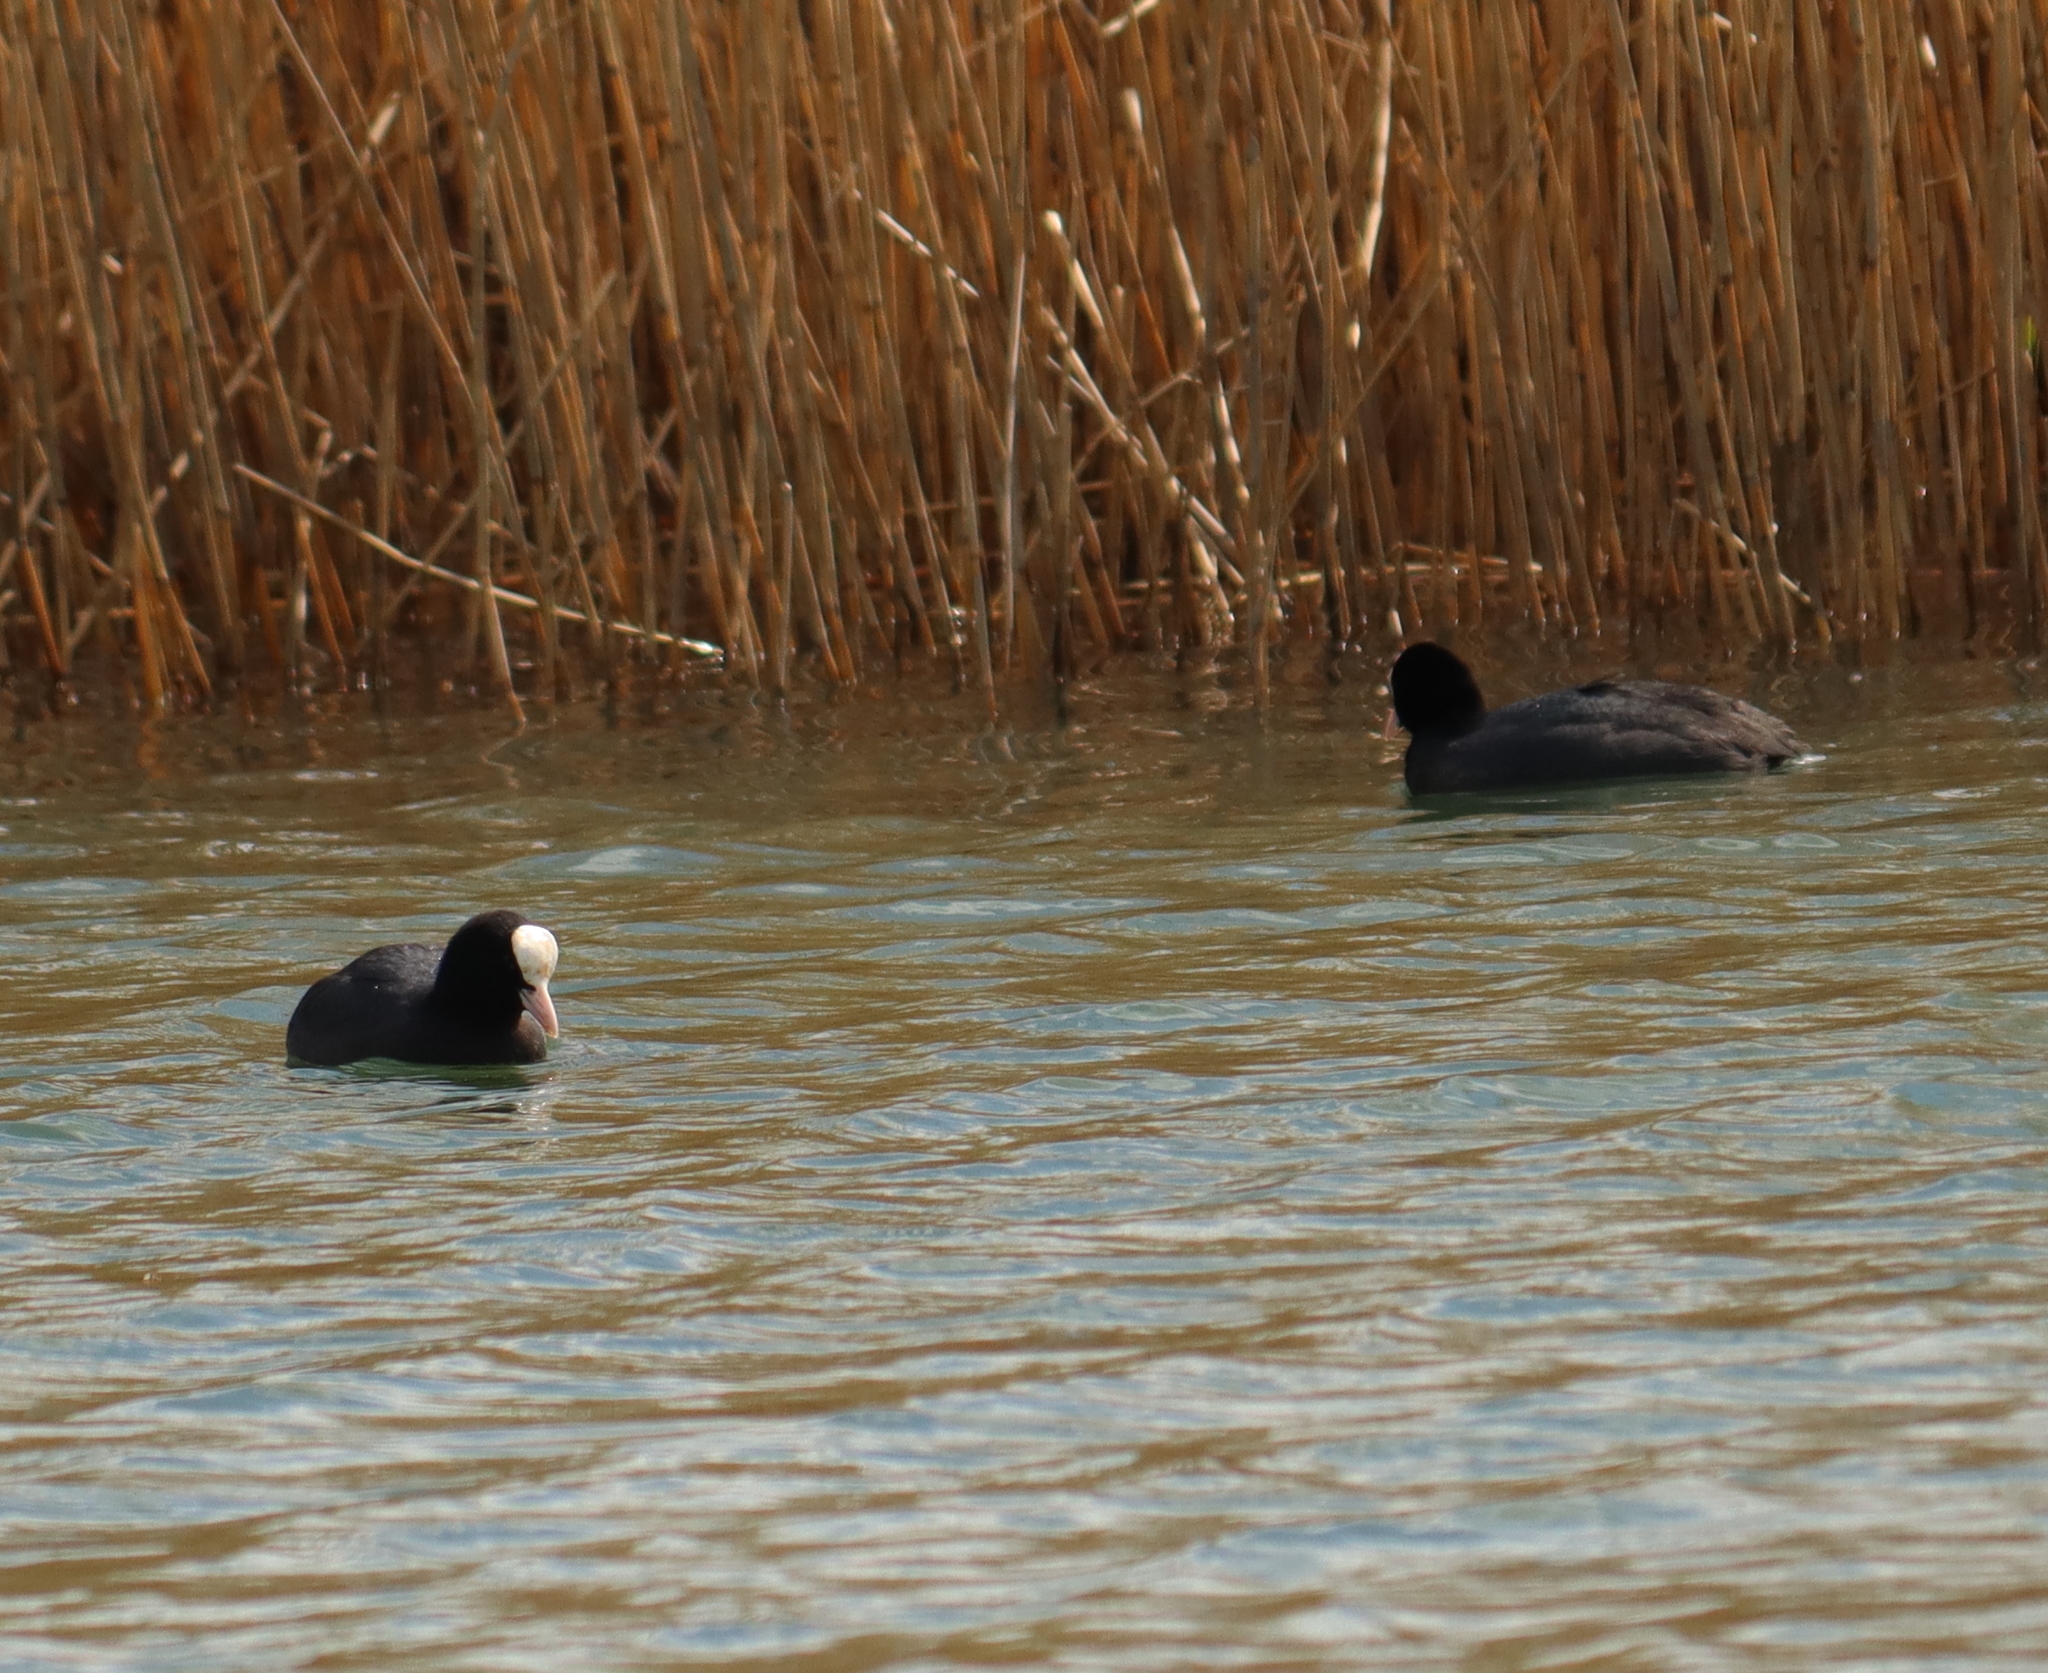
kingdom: Animalia
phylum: Chordata
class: Aves
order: Gruiformes
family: Rallidae
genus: Fulica
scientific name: Fulica atra
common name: Eurasian coot
